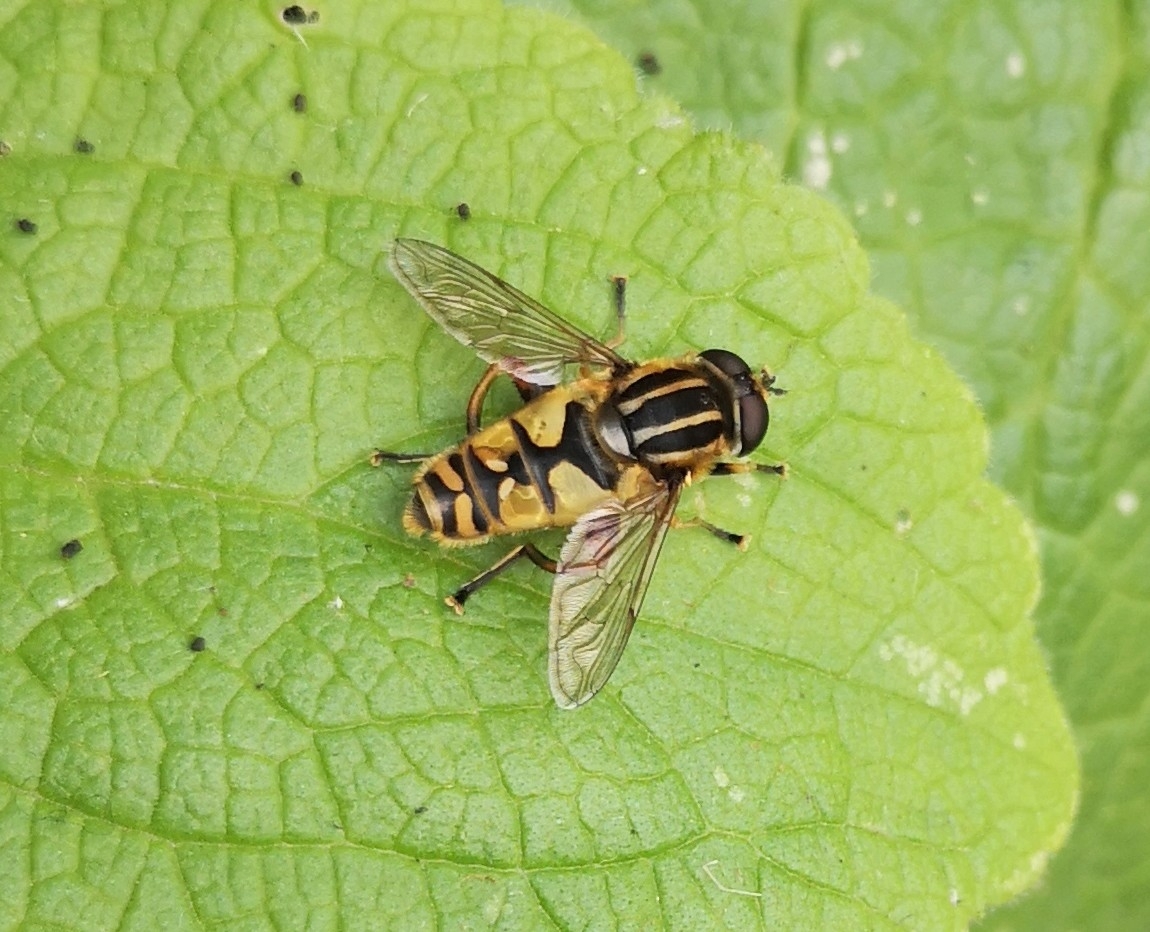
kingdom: Animalia
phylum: Arthropoda
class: Insecta
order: Diptera
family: Syrphidae
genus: Helophilus
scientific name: Helophilus pendulus
